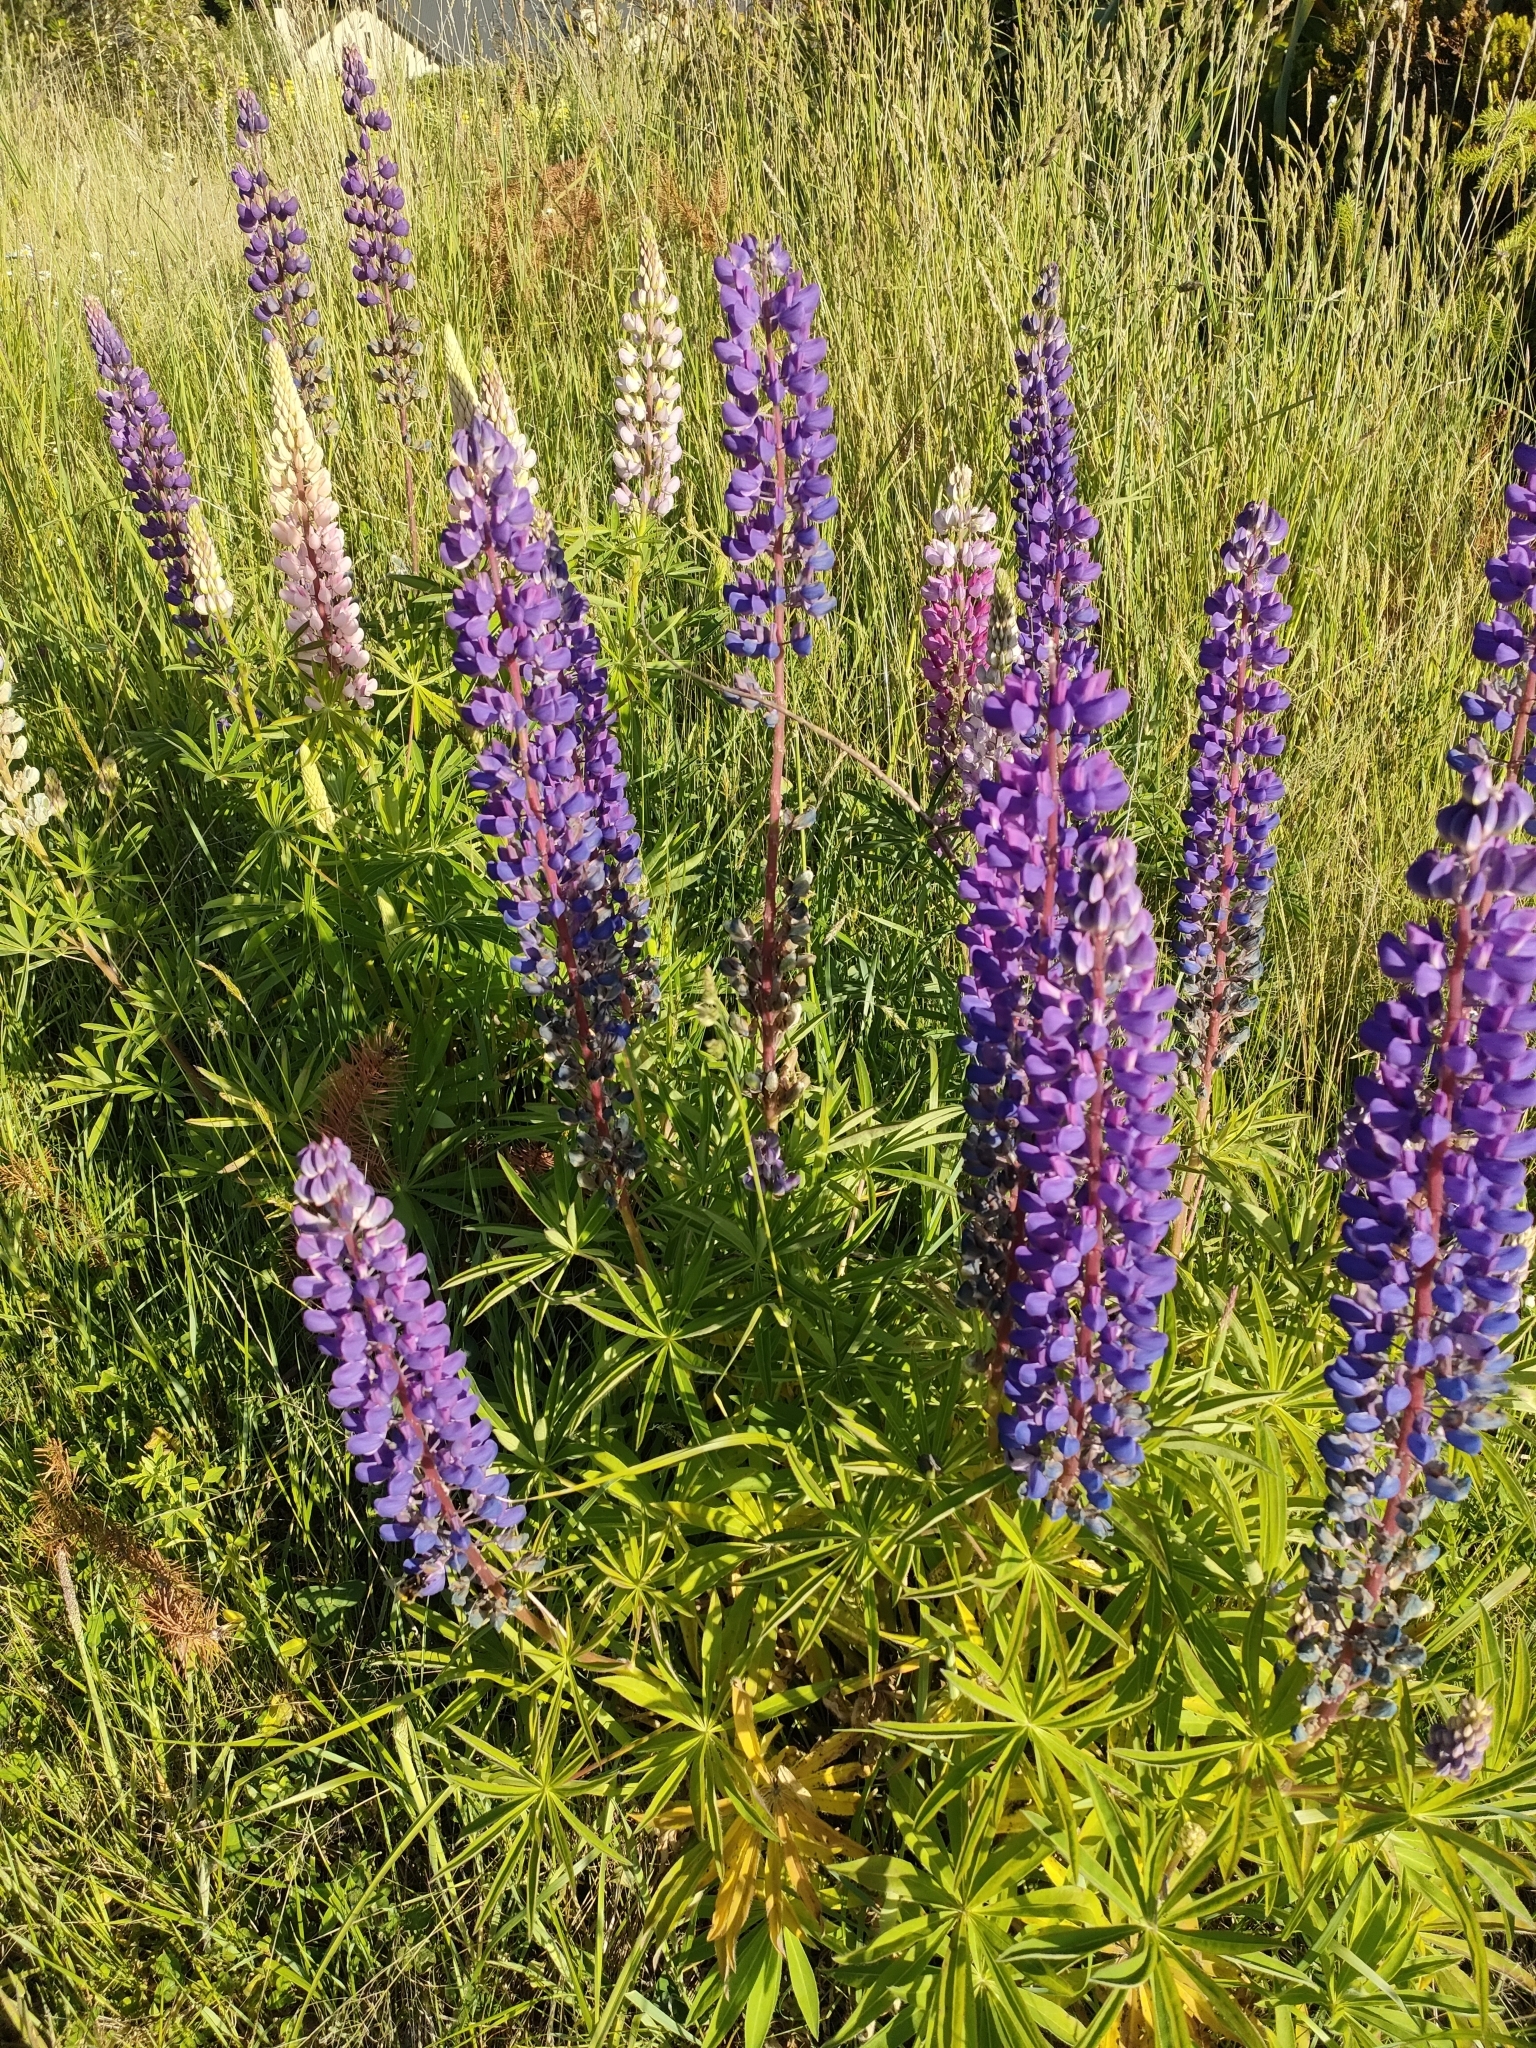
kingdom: Plantae
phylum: Tracheophyta
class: Magnoliopsida
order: Fabales
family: Fabaceae
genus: Lupinus
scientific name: Lupinus polyphyllus
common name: Garden lupin
